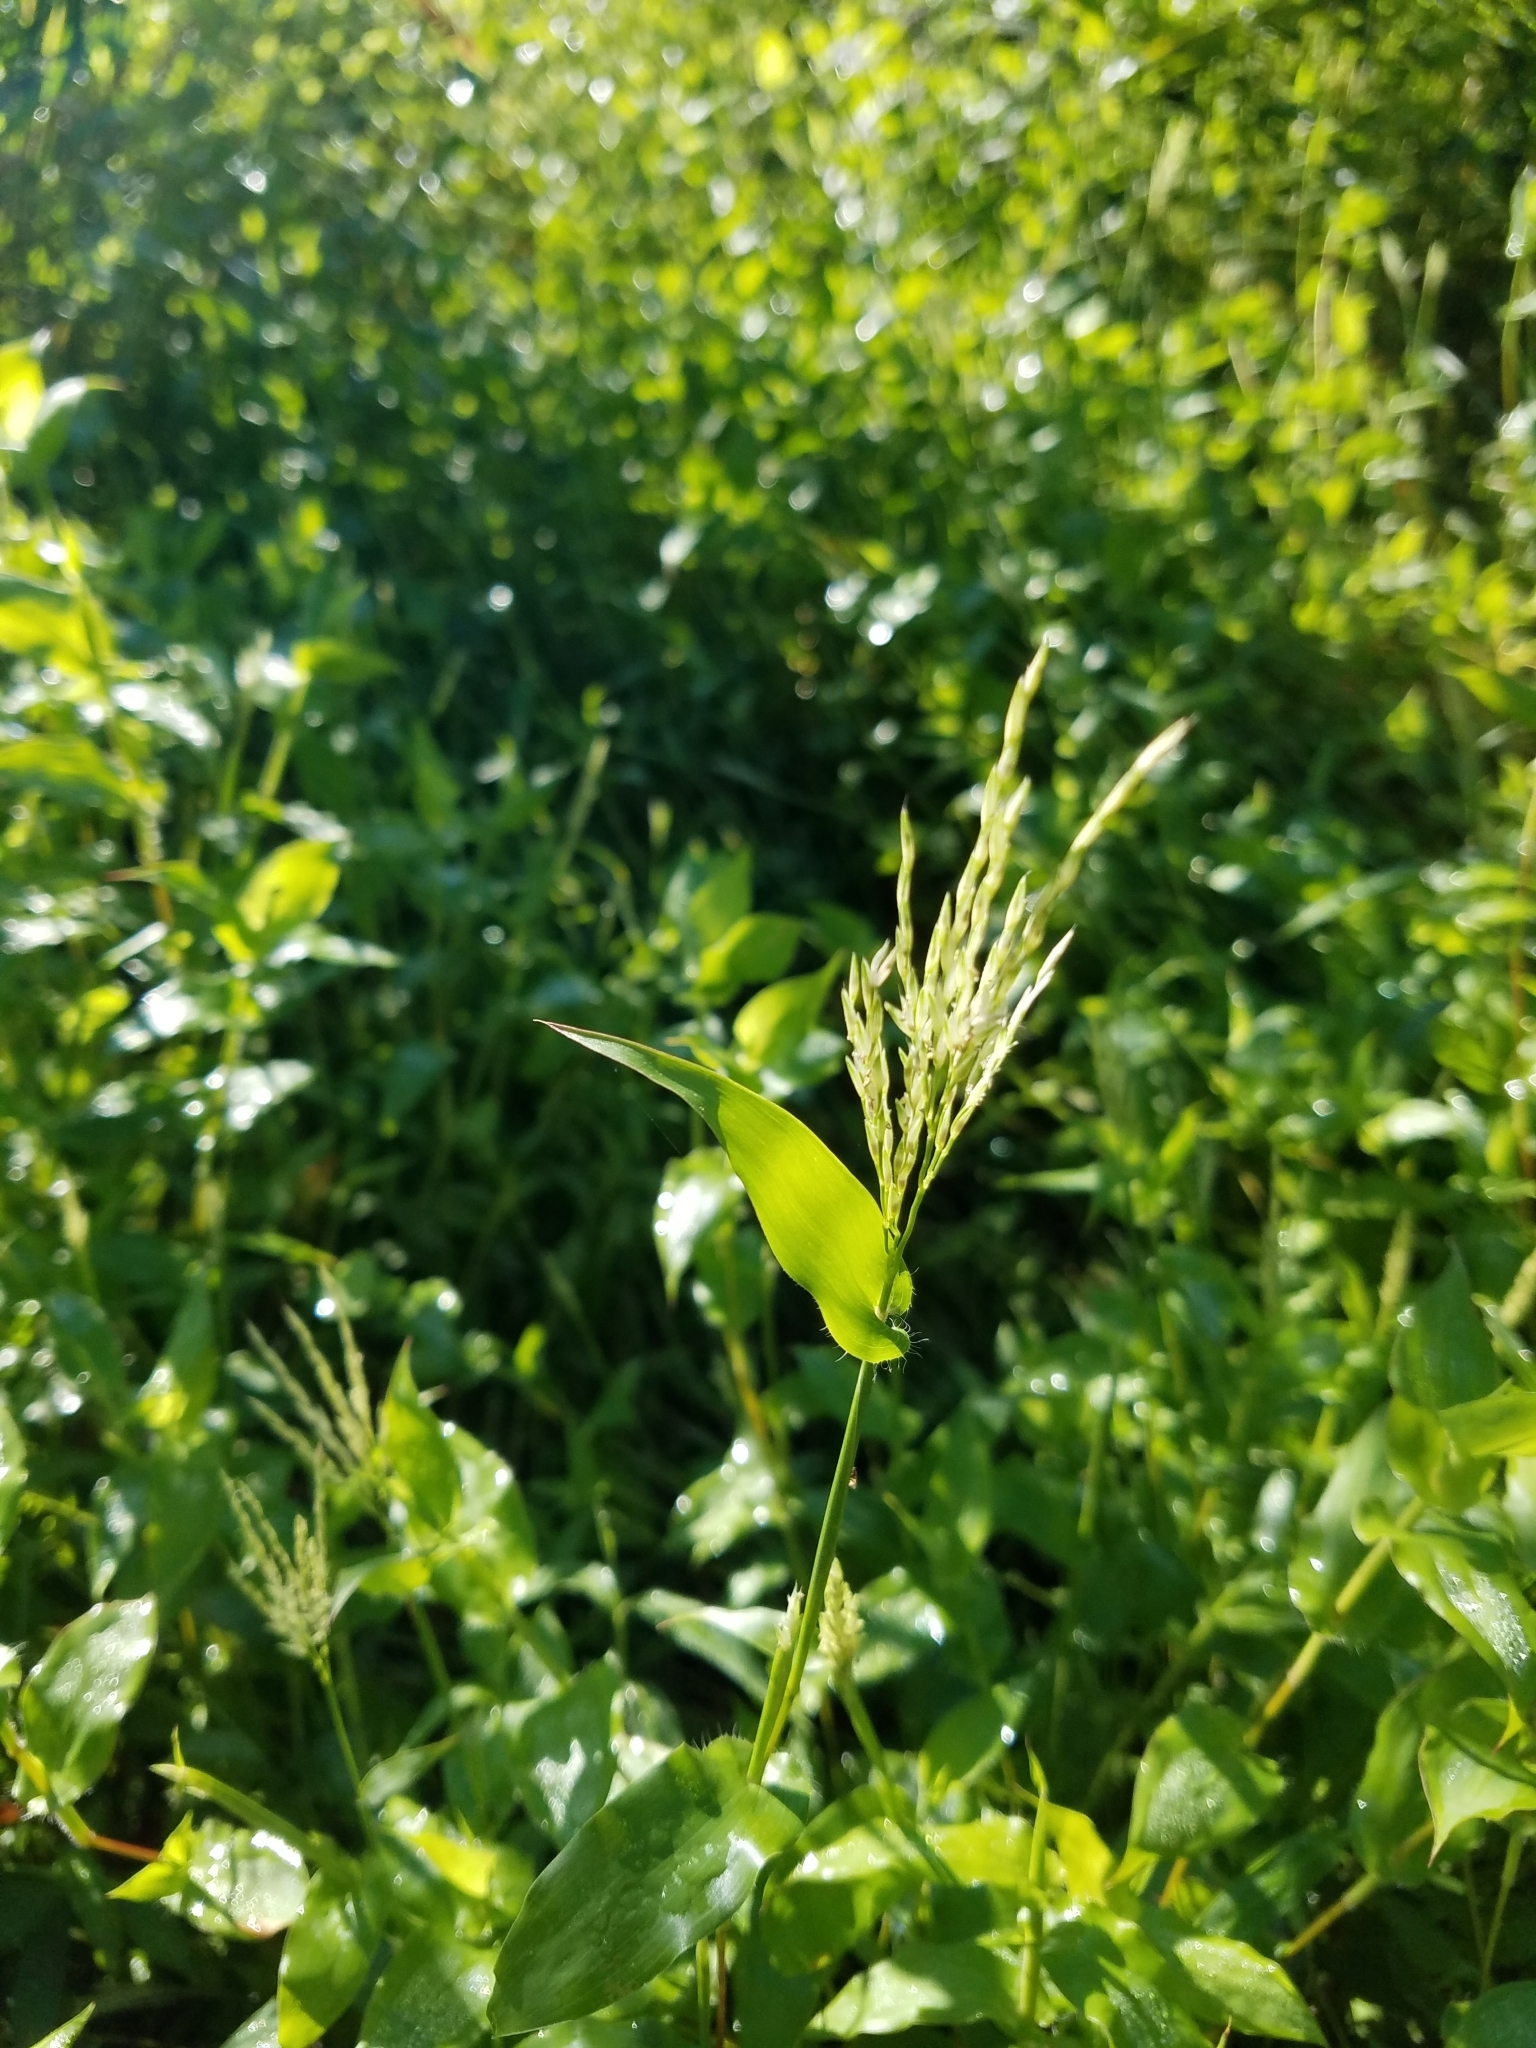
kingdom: Plantae
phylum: Tracheophyta
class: Liliopsida
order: Poales
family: Poaceae
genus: Arthraxon
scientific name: Arthraxon hispidus
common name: Small carpgrass
